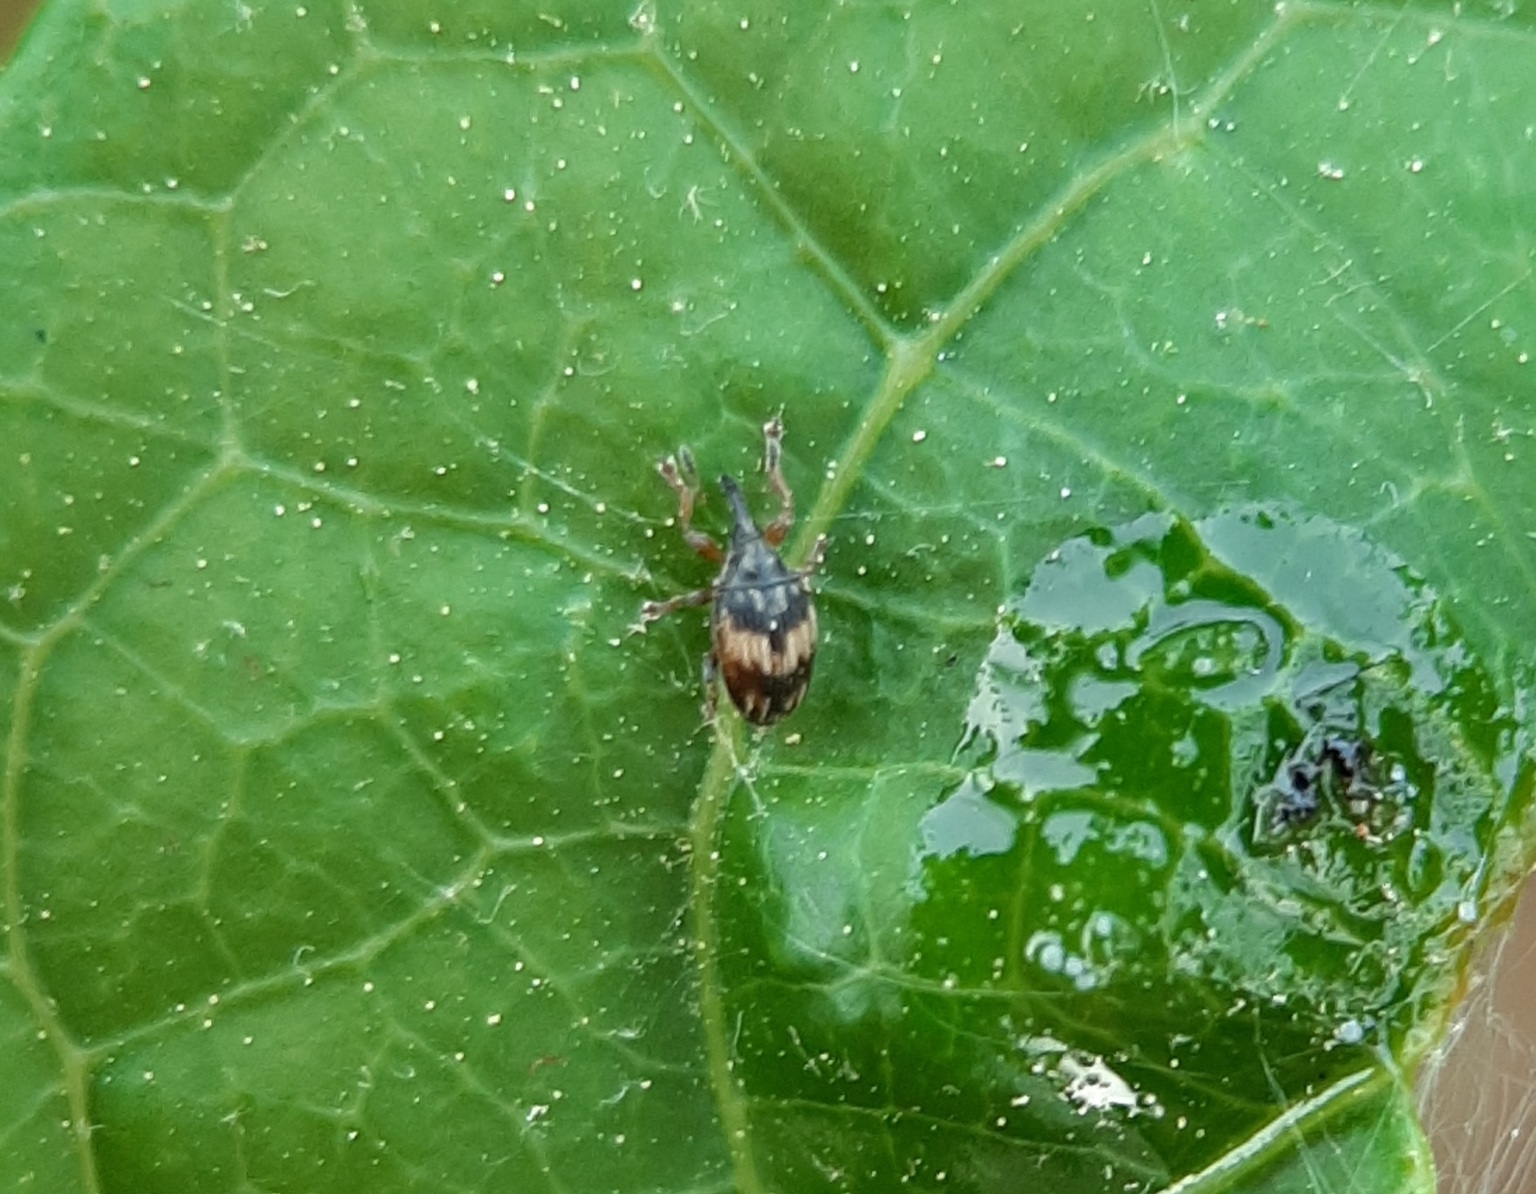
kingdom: Animalia
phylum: Arthropoda
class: Insecta
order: Coleoptera
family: Brentidae
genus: Nanophyes
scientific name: Nanophyes marmoratus
